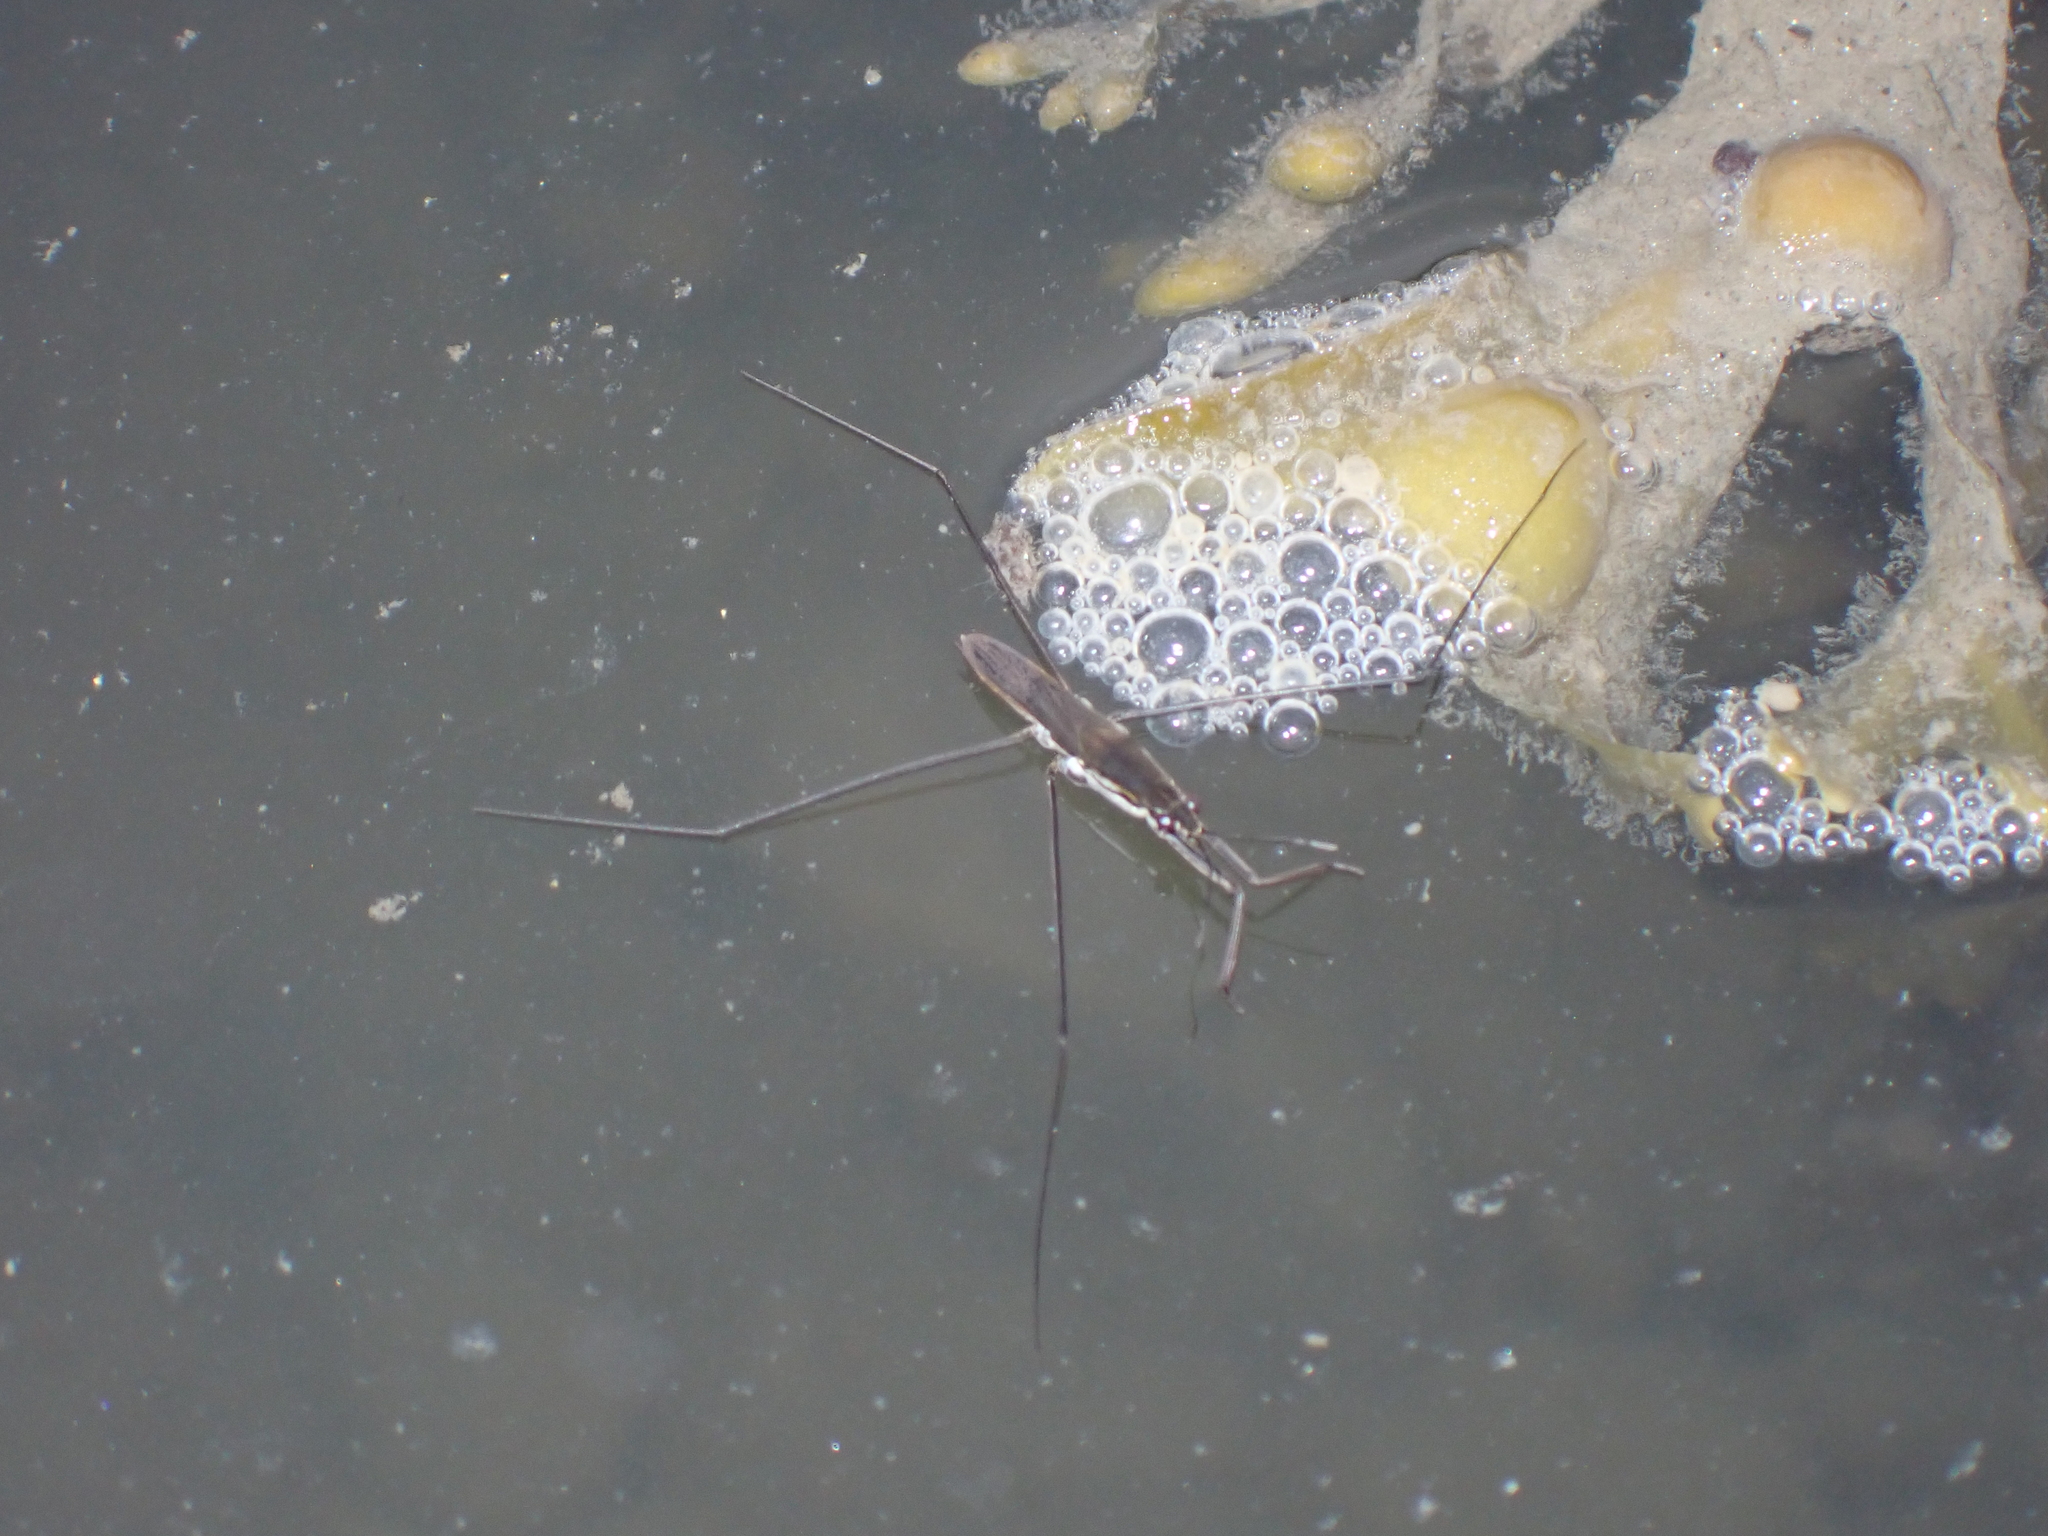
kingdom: Animalia
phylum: Arthropoda
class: Insecta
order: Hemiptera
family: Gerridae
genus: Aquarius
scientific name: Aquarius paludum
